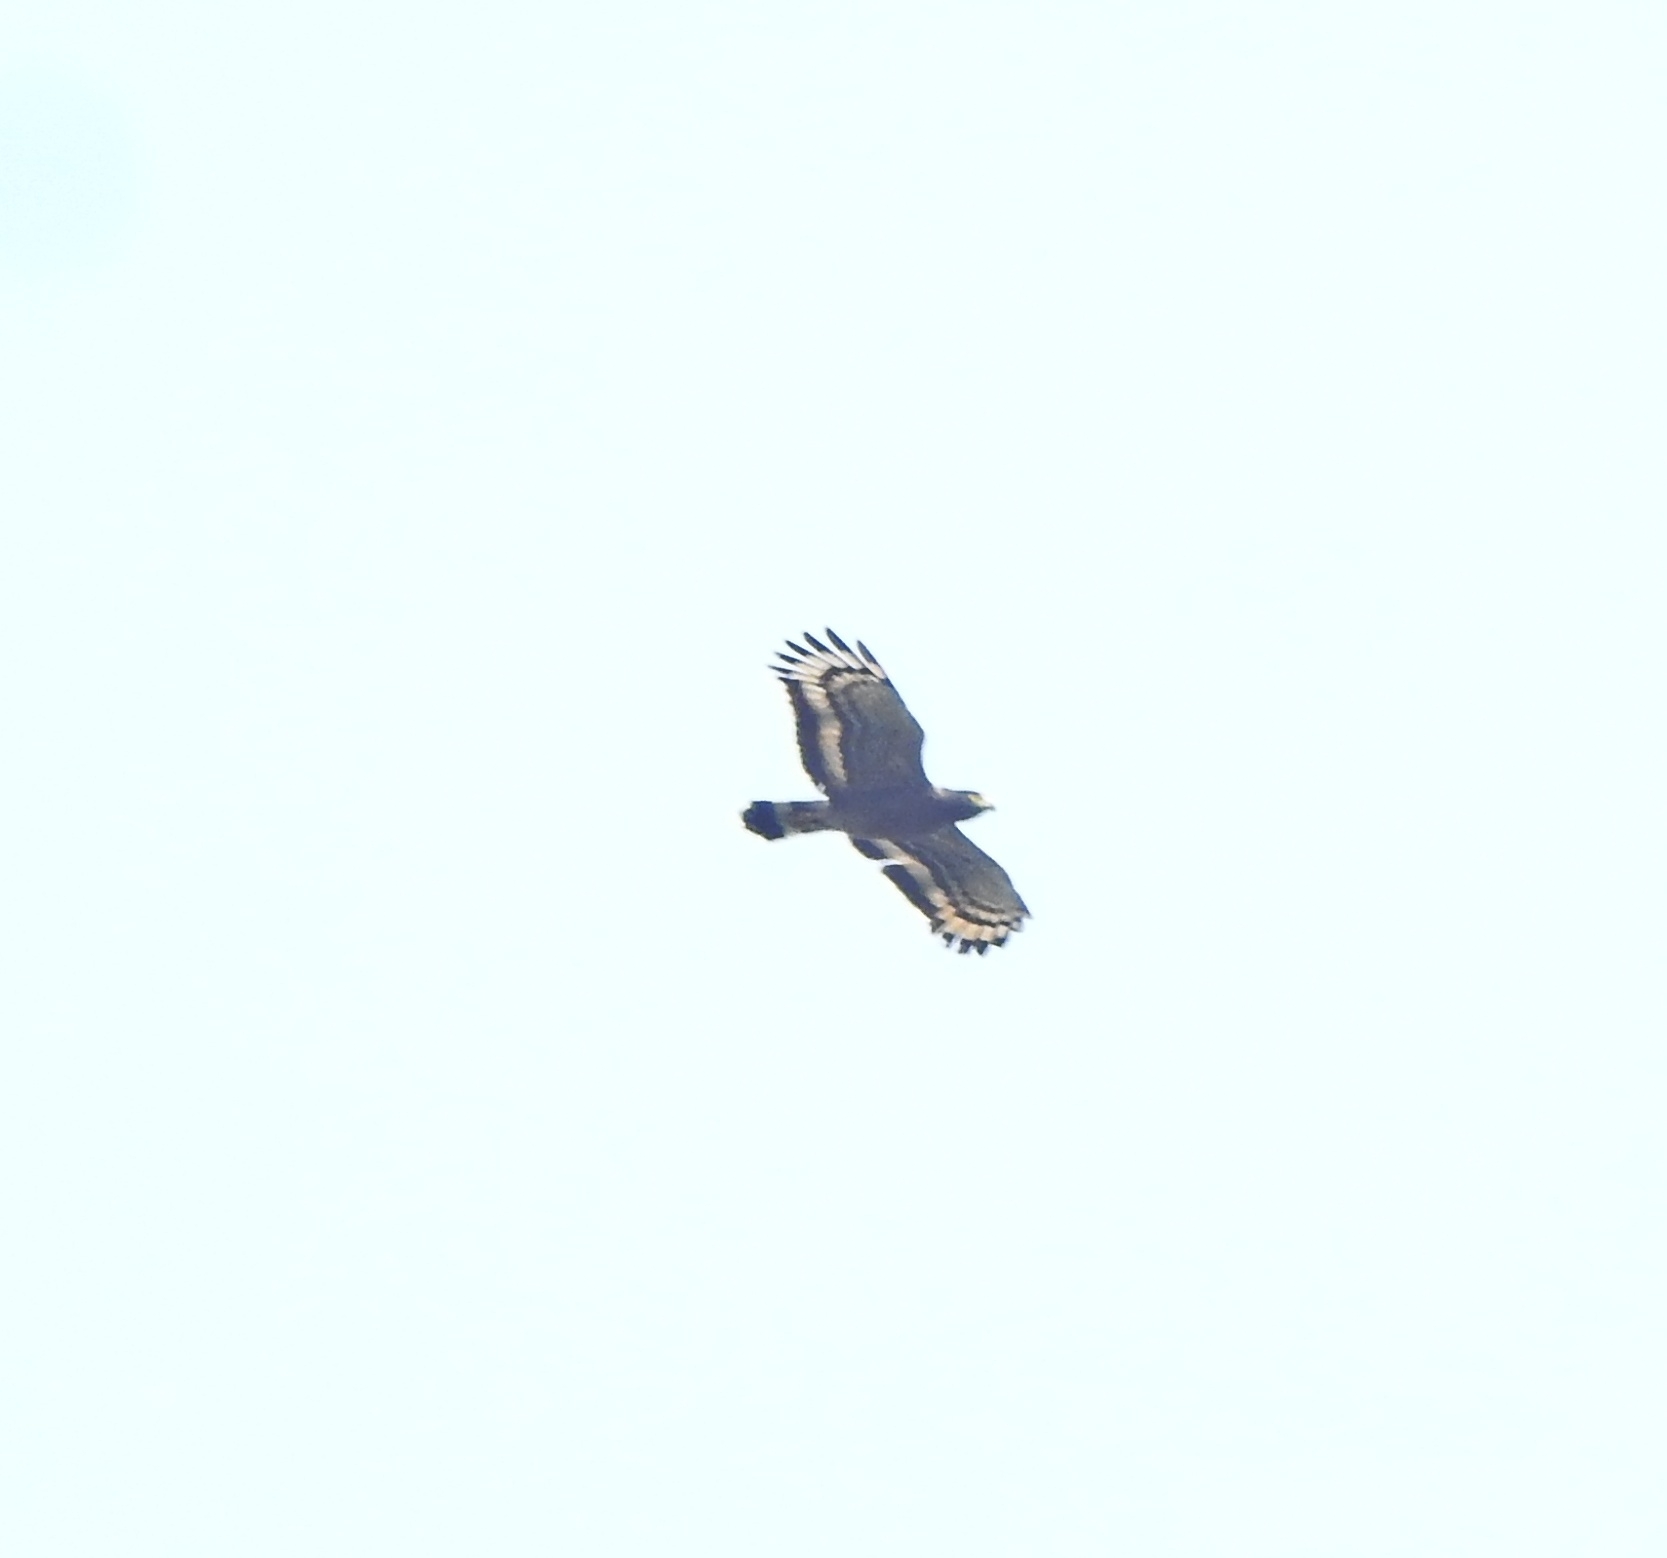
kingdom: Animalia
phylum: Chordata
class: Aves
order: Accipitriformes
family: Accipitridae
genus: Spilornis
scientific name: Spilornis cheela
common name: Crested serpent eagle
